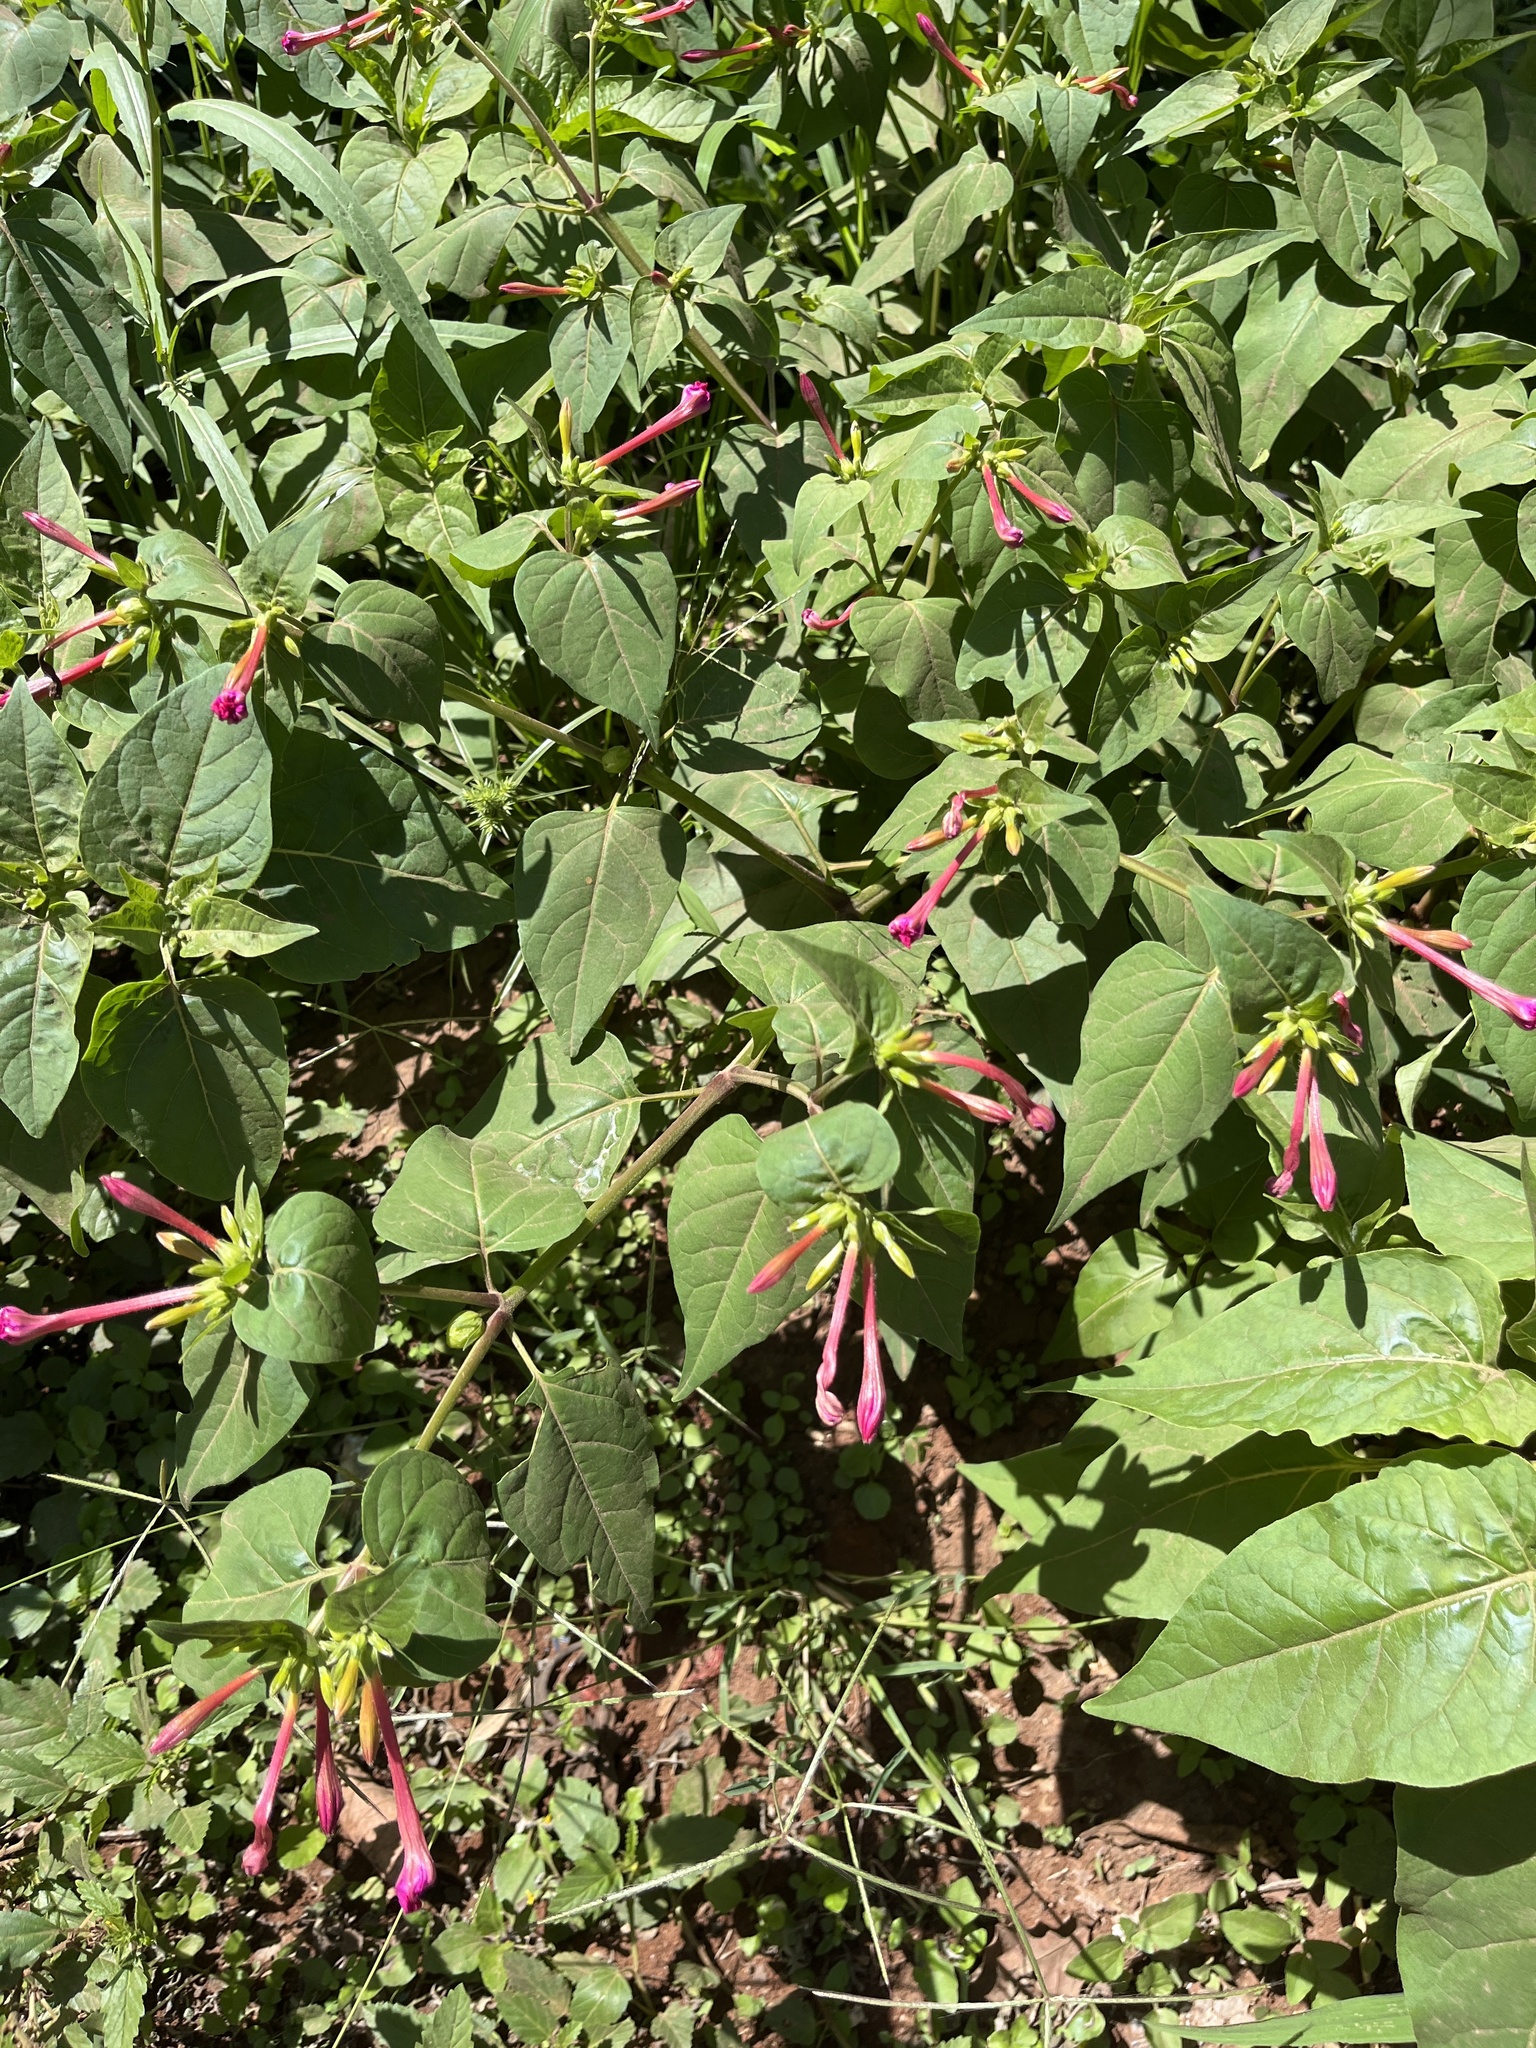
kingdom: Plantae
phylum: Tracheophyta
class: Magnoliopsida
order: Caryophyllales
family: Nyctaginaceae
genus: Mirabilis
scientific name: Mirabilis jalapa
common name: Marvel-of-peru
